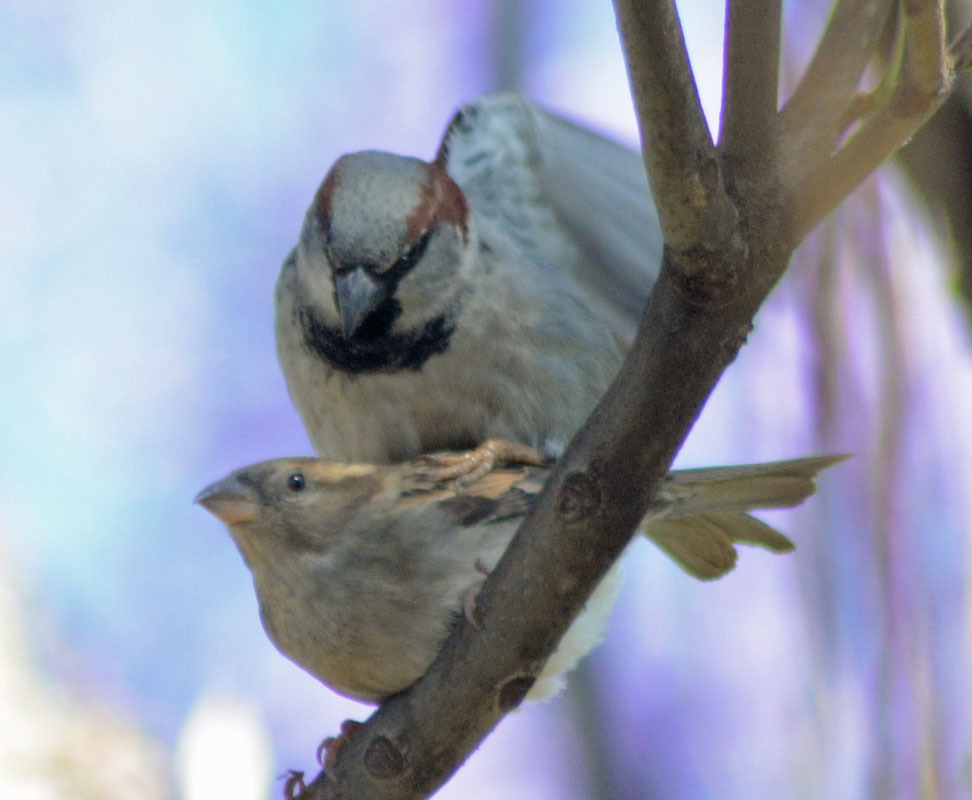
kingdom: Animalia
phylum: Chordata
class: Aves
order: Passeriformes
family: Passeridae
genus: Passer
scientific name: Passer domesticus
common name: House sparrow
